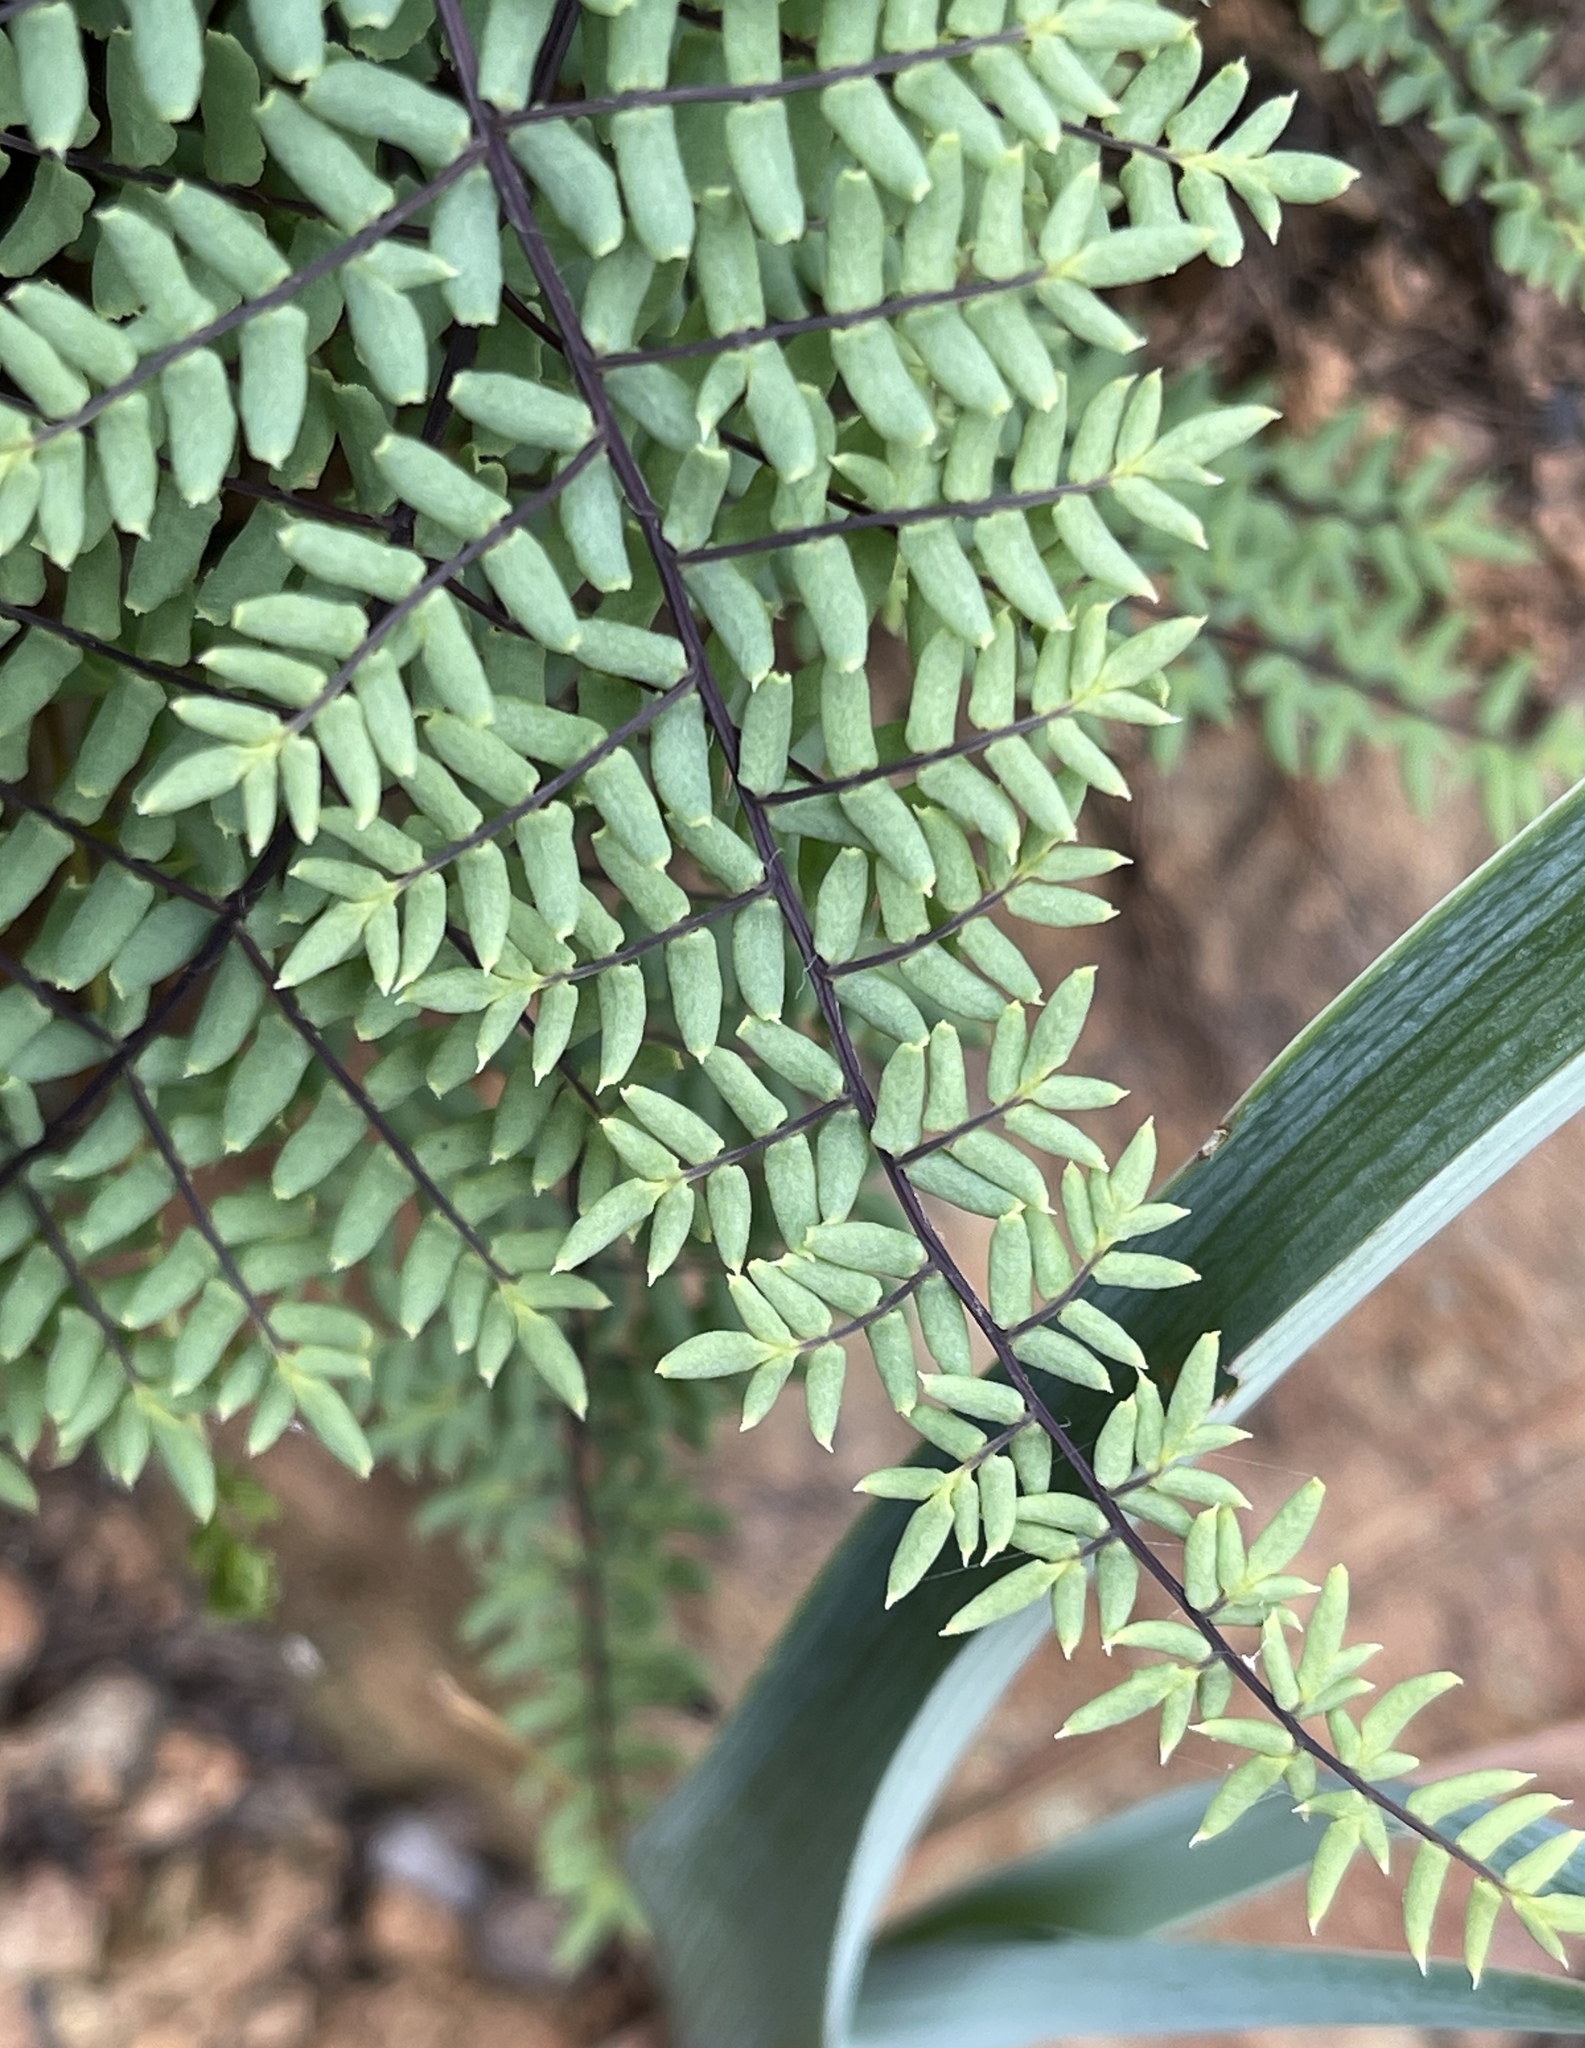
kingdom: Plantae
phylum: Tracheophyta
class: Polypodiopsida
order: Polypodiales
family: Pteridaceae
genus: Pellaea
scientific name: Pellaea mucronata
